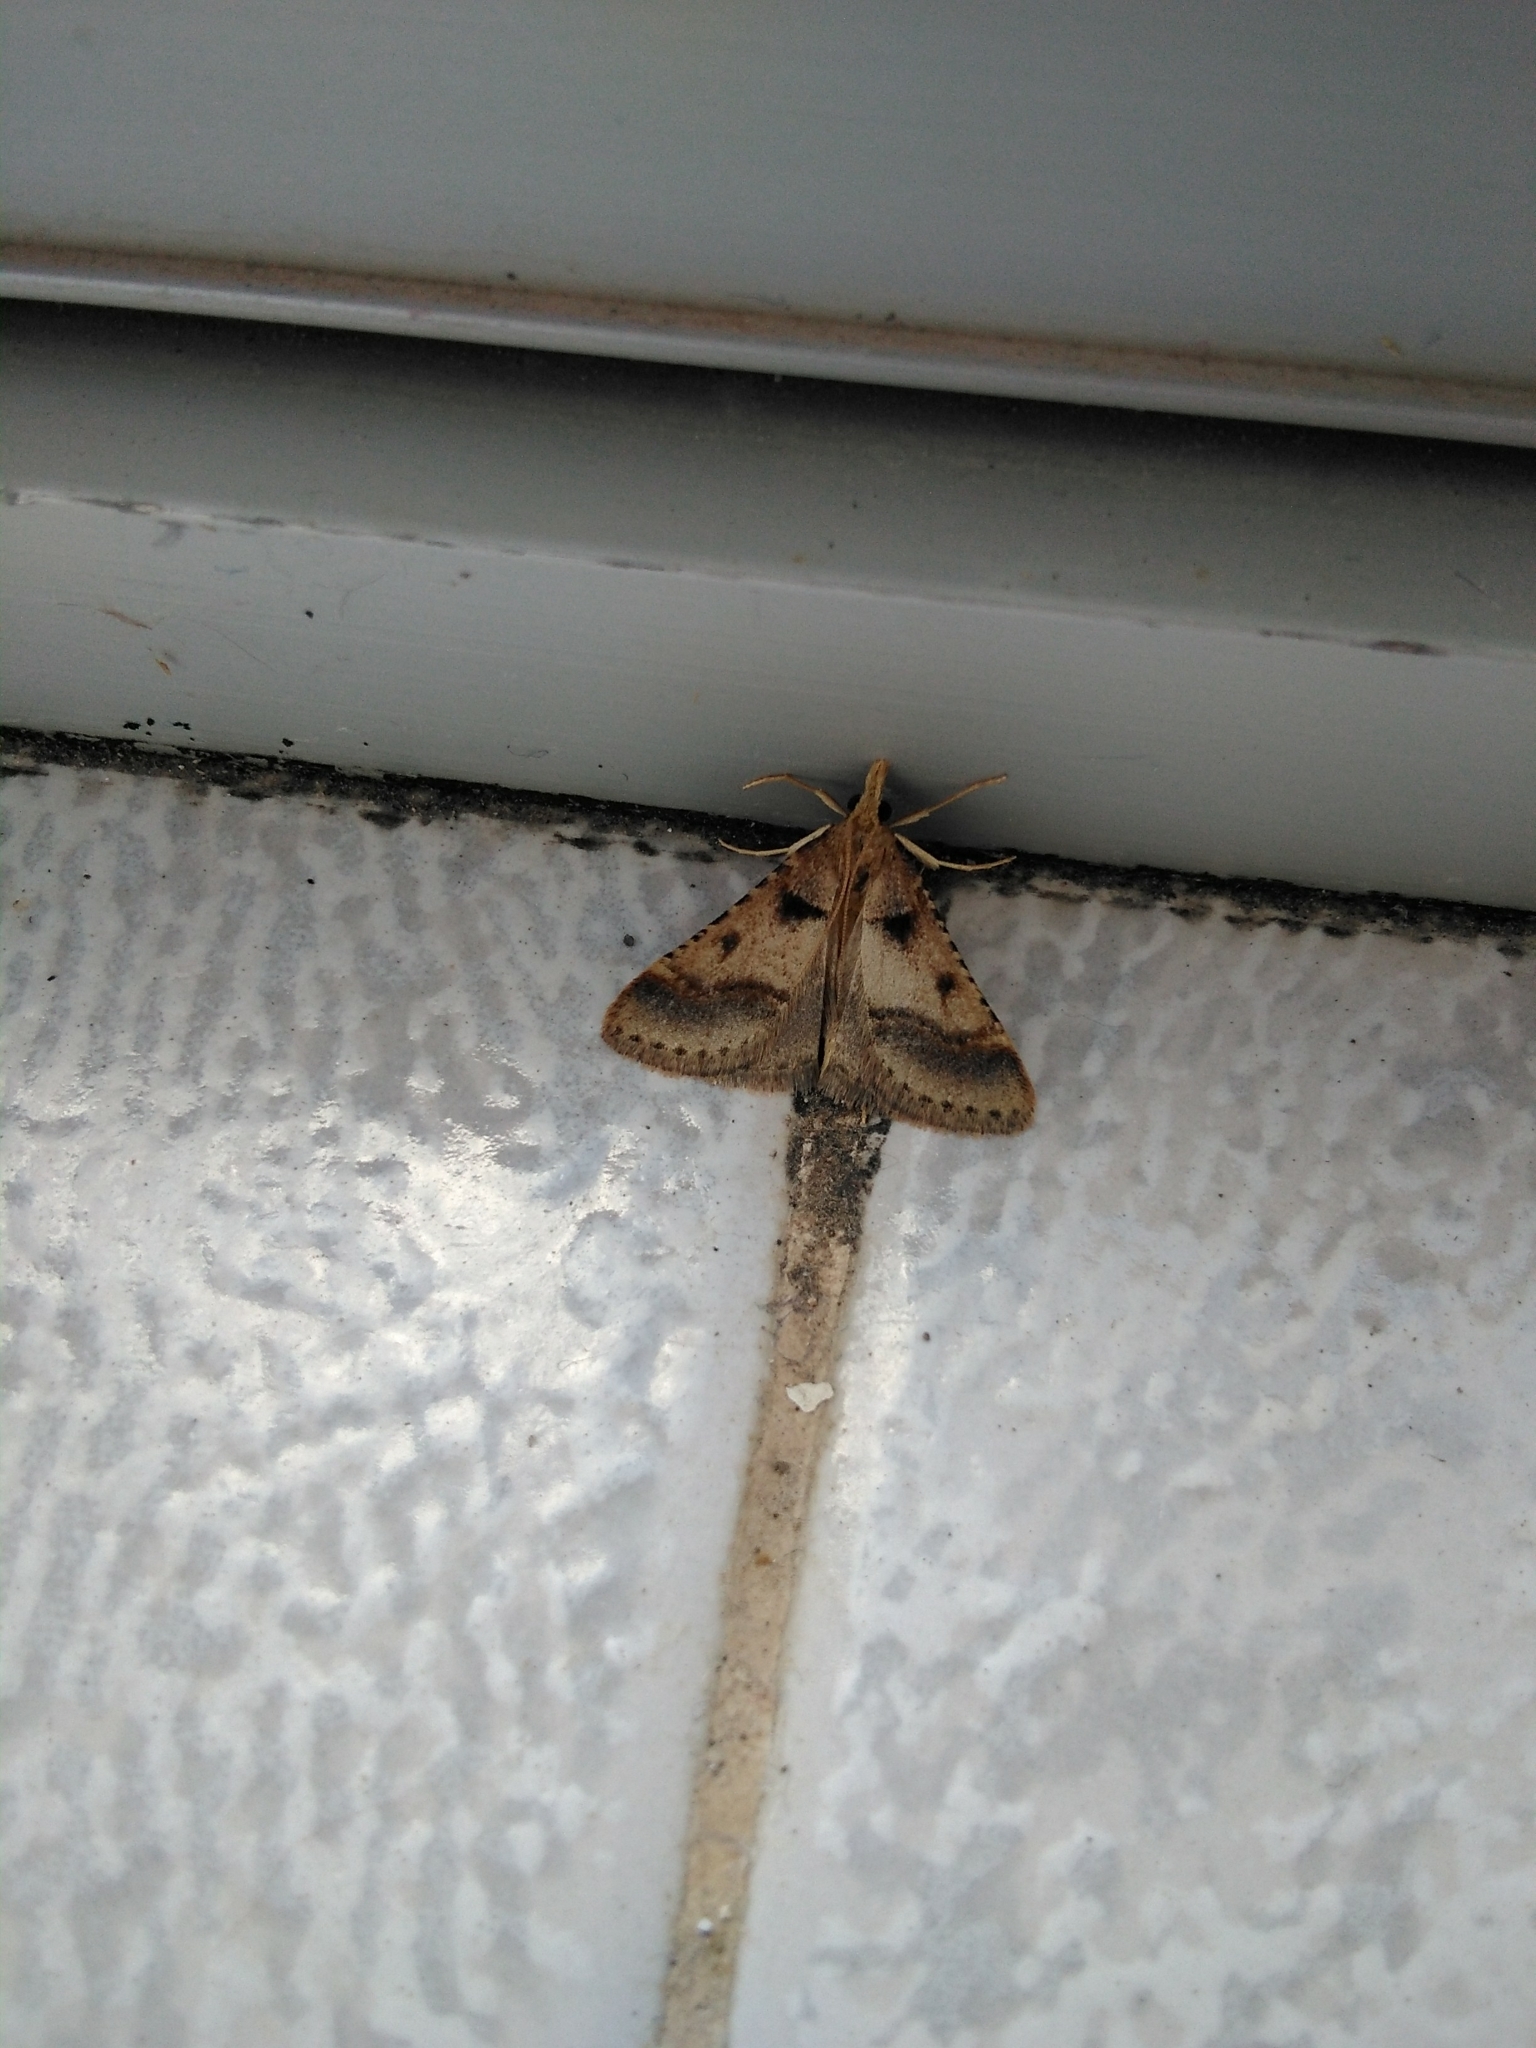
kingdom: Animalia
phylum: Arthropoda
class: Insecta
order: Lepidoptera
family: Pyralidae
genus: Stemmatophora
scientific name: Stemmatophora brunnealis
